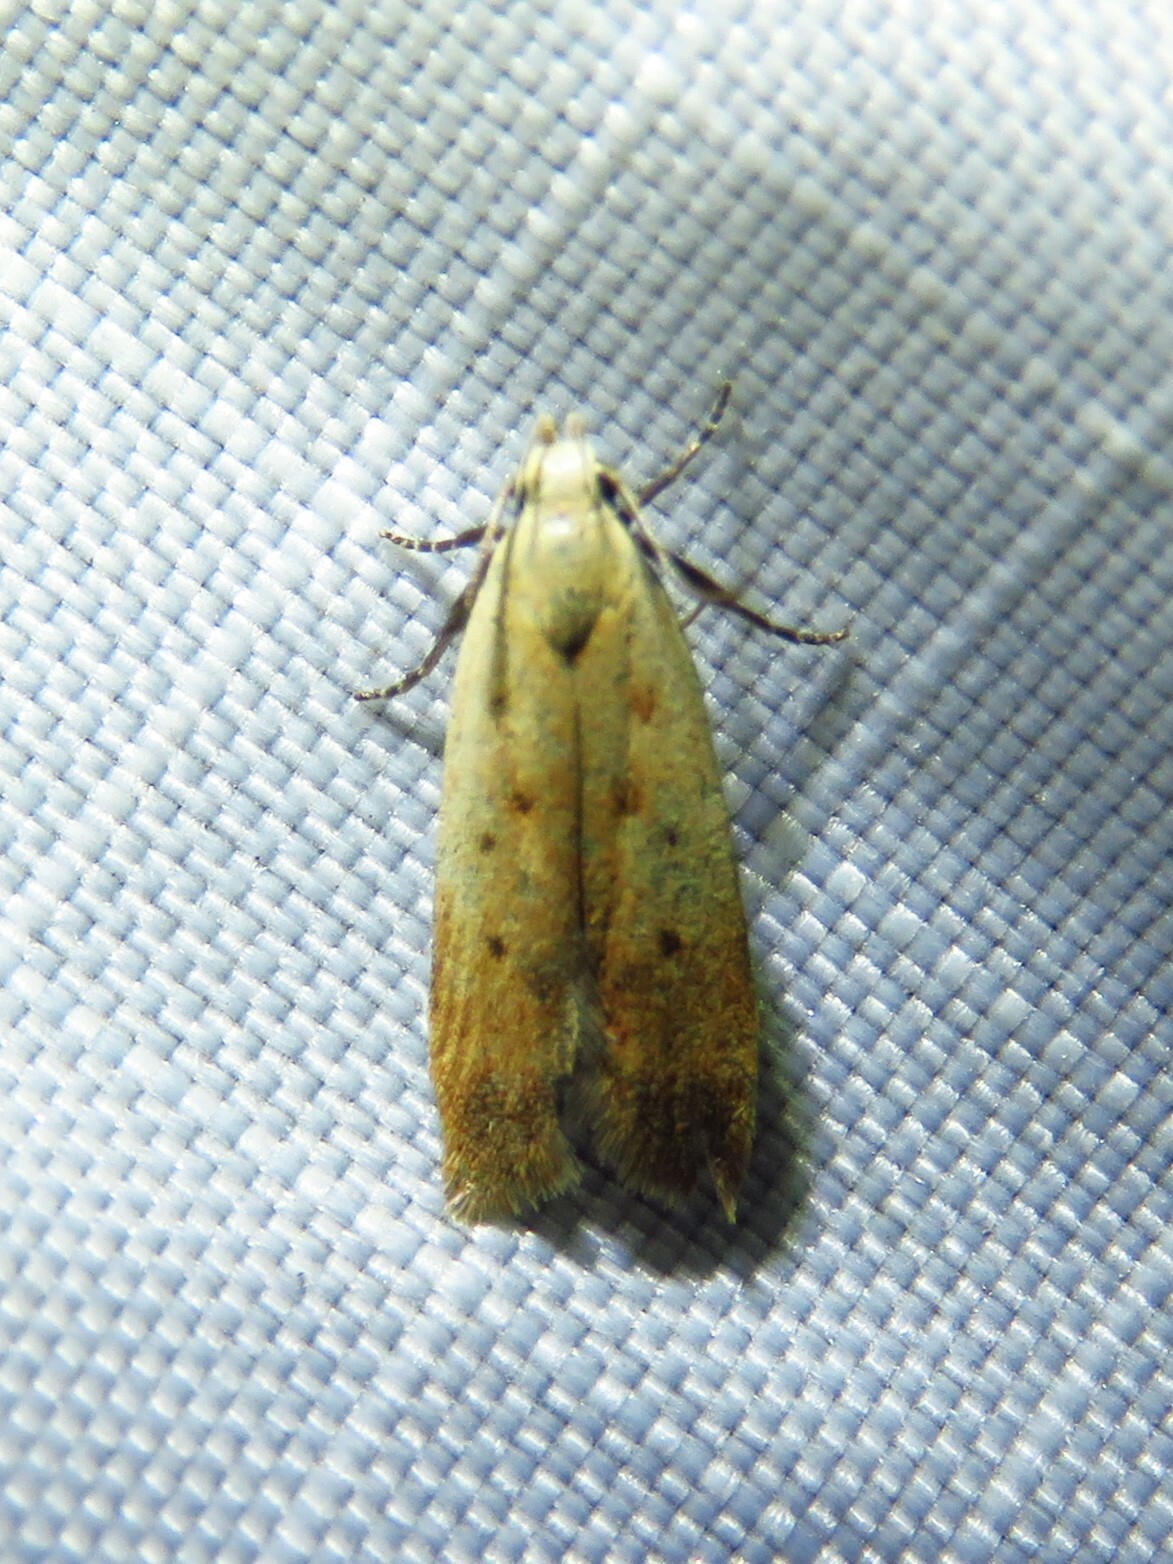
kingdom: Animalia
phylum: Arthropoda
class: Insecta
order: Lepidoptera
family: Gelechiidae
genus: Anacampsis
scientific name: Anacampsis fullonella
